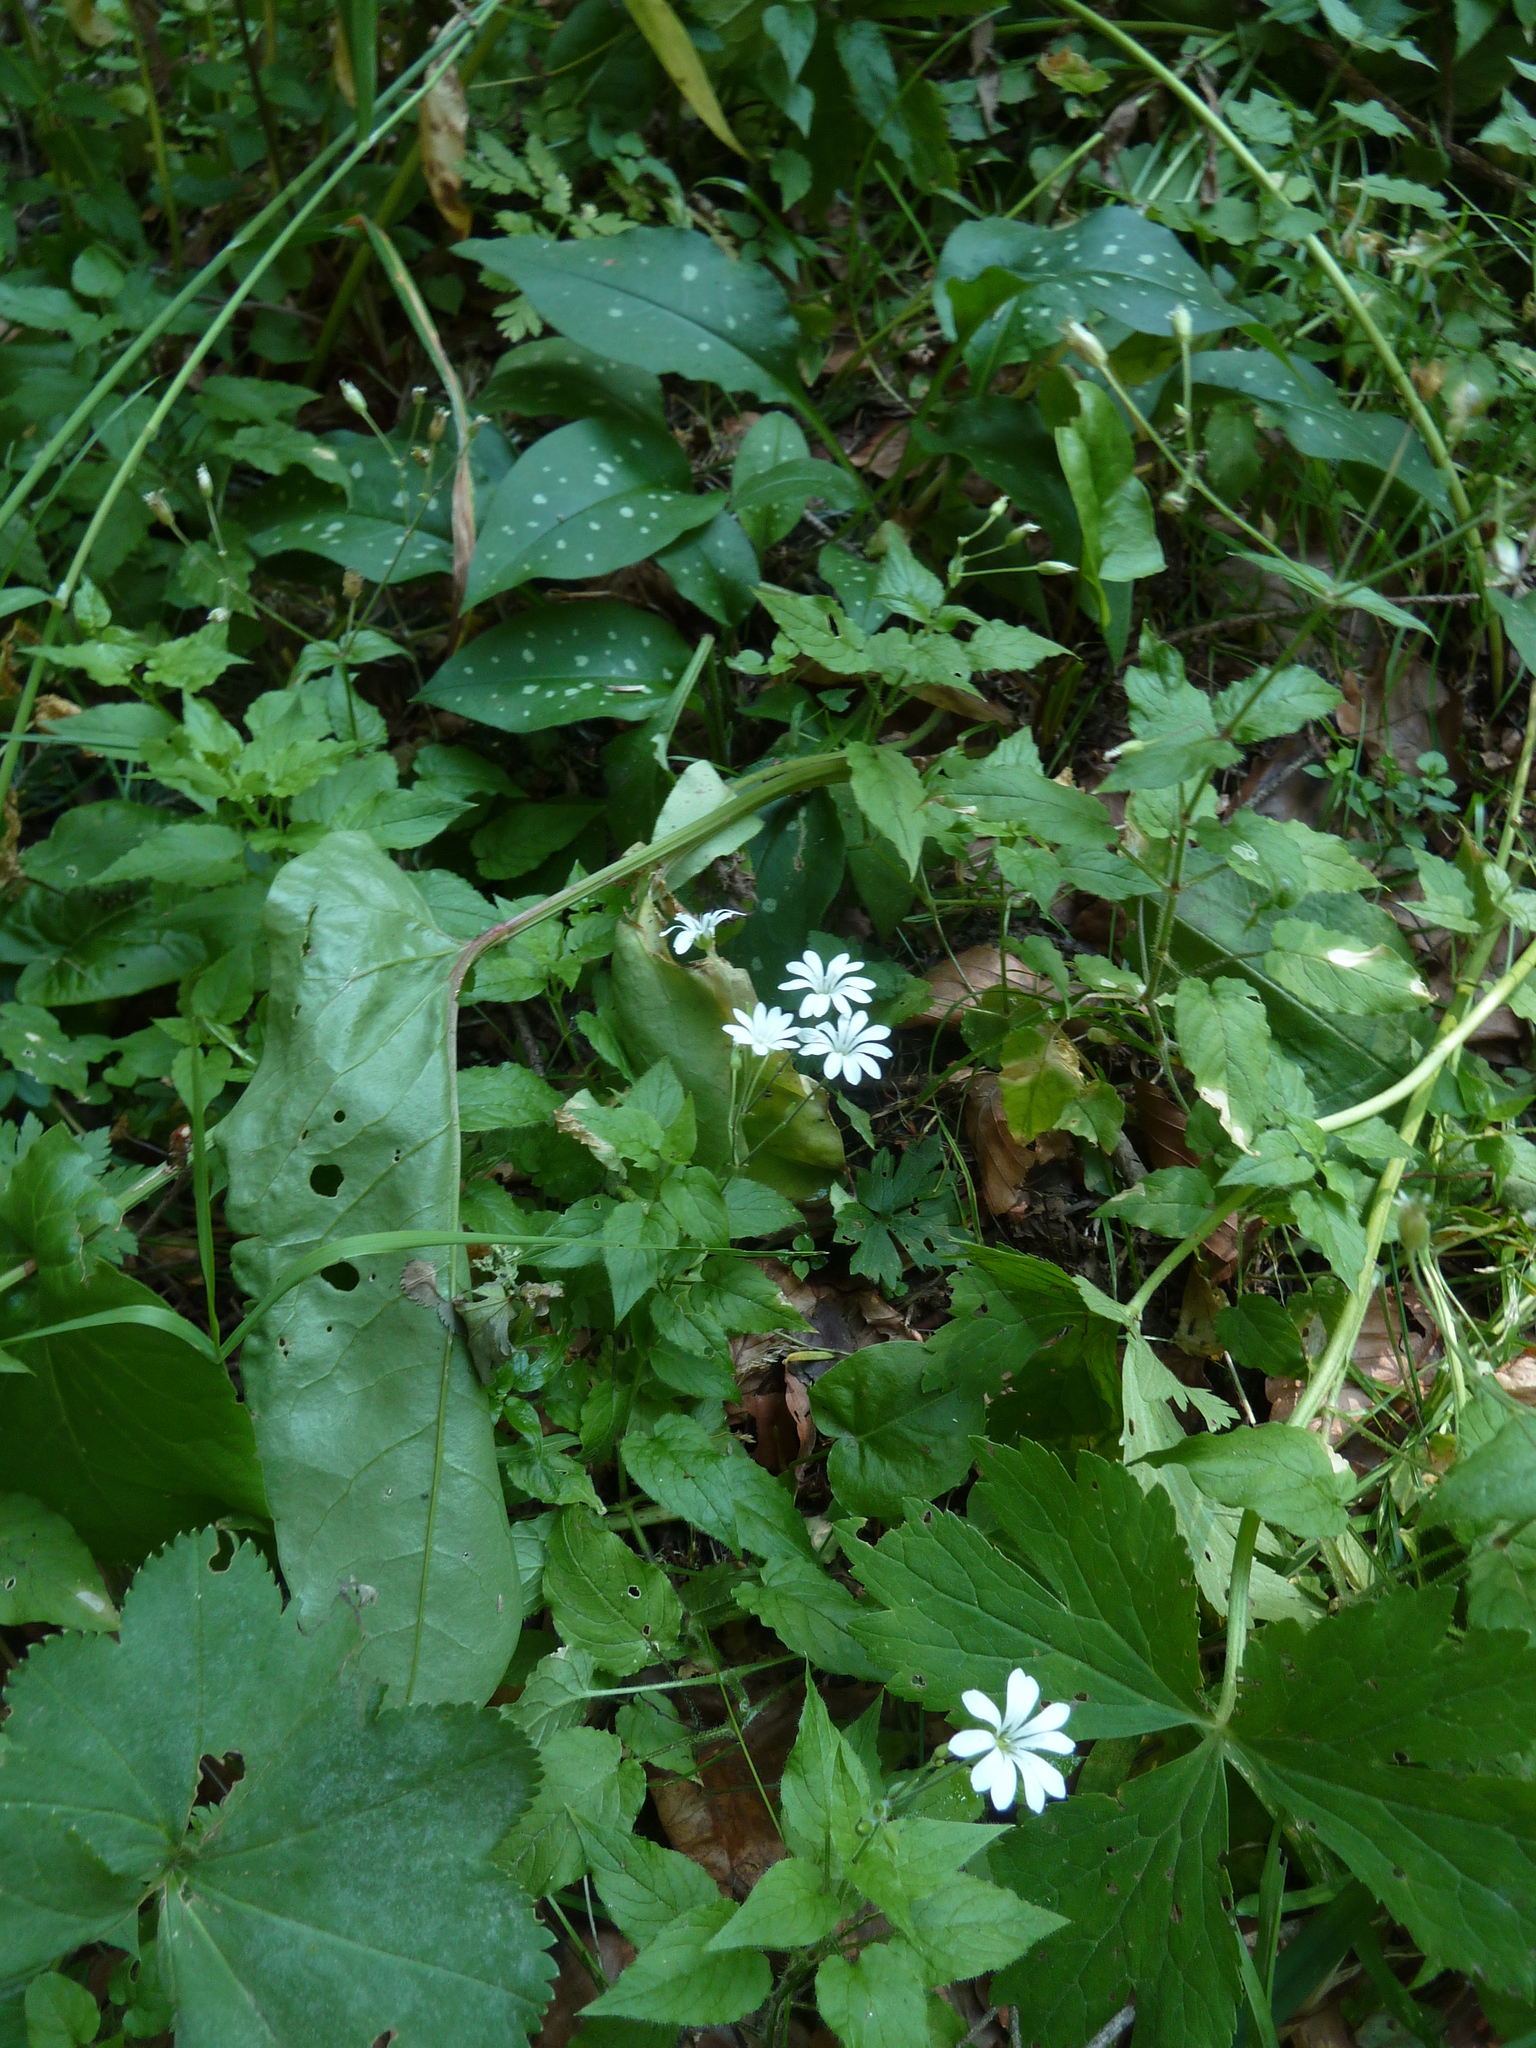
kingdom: Plantae
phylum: Tracheophyta
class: Magnoliopsida
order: Caryophyllales
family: Caryophyllaceae
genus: Stellaria
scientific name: Stellaria nemorum
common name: Wood stitchwort
